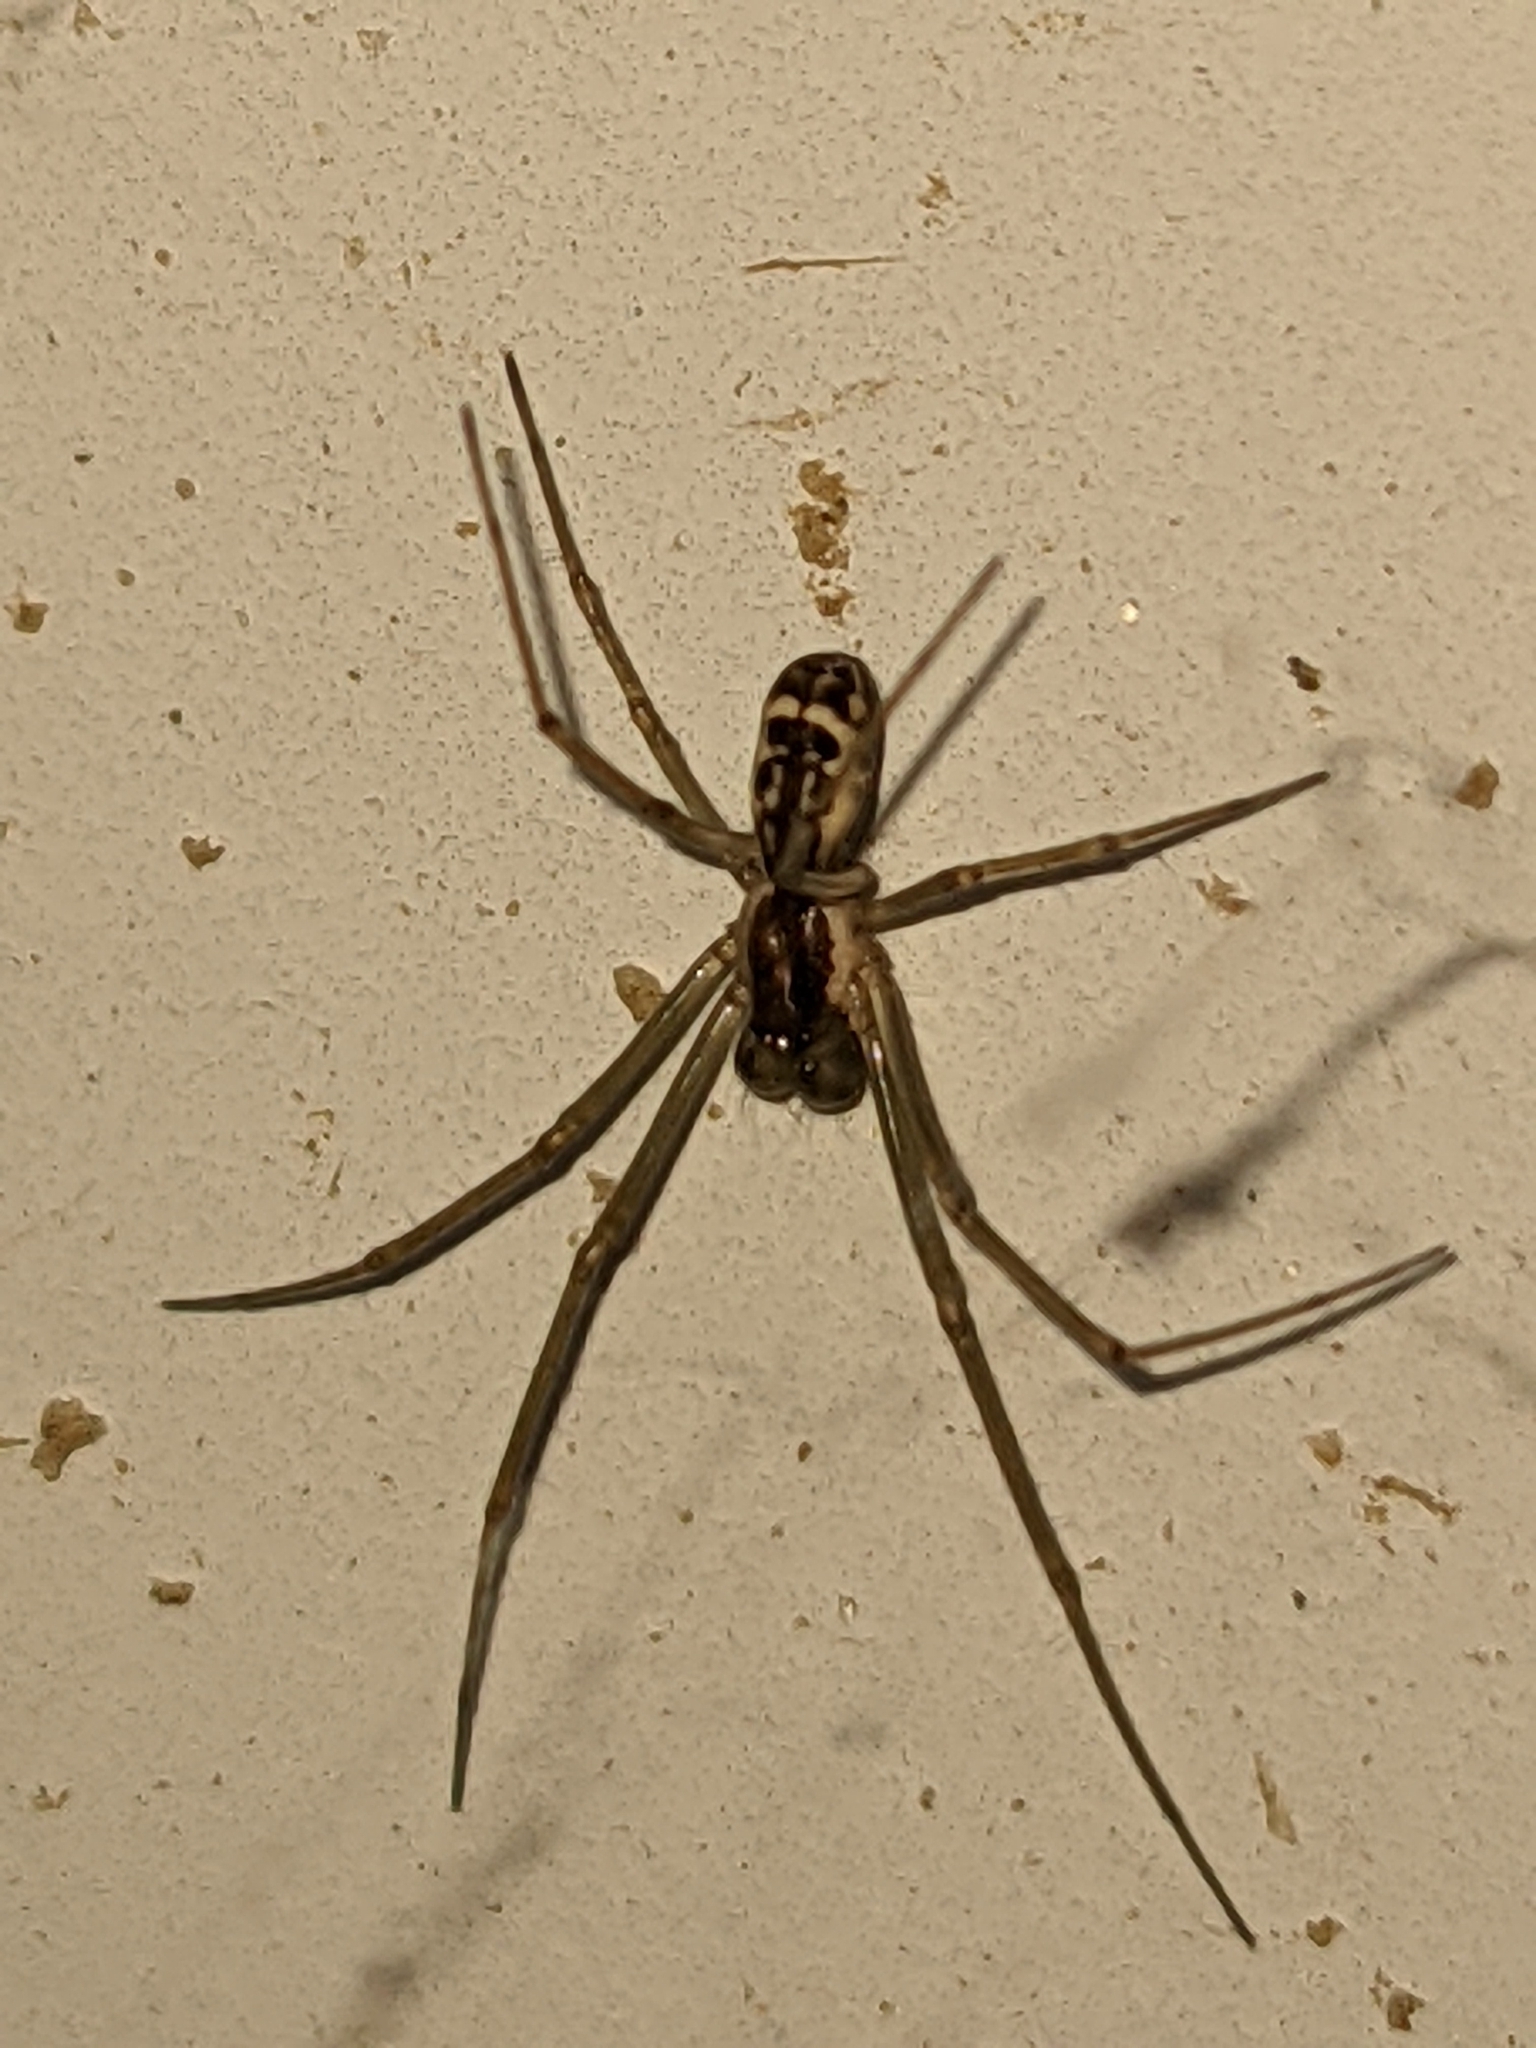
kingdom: Animalia
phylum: Arthropoda
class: Arachnida
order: Araneae
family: Linyphiidae
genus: Neriene
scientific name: Neriene radiata
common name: Filmy dome spider
